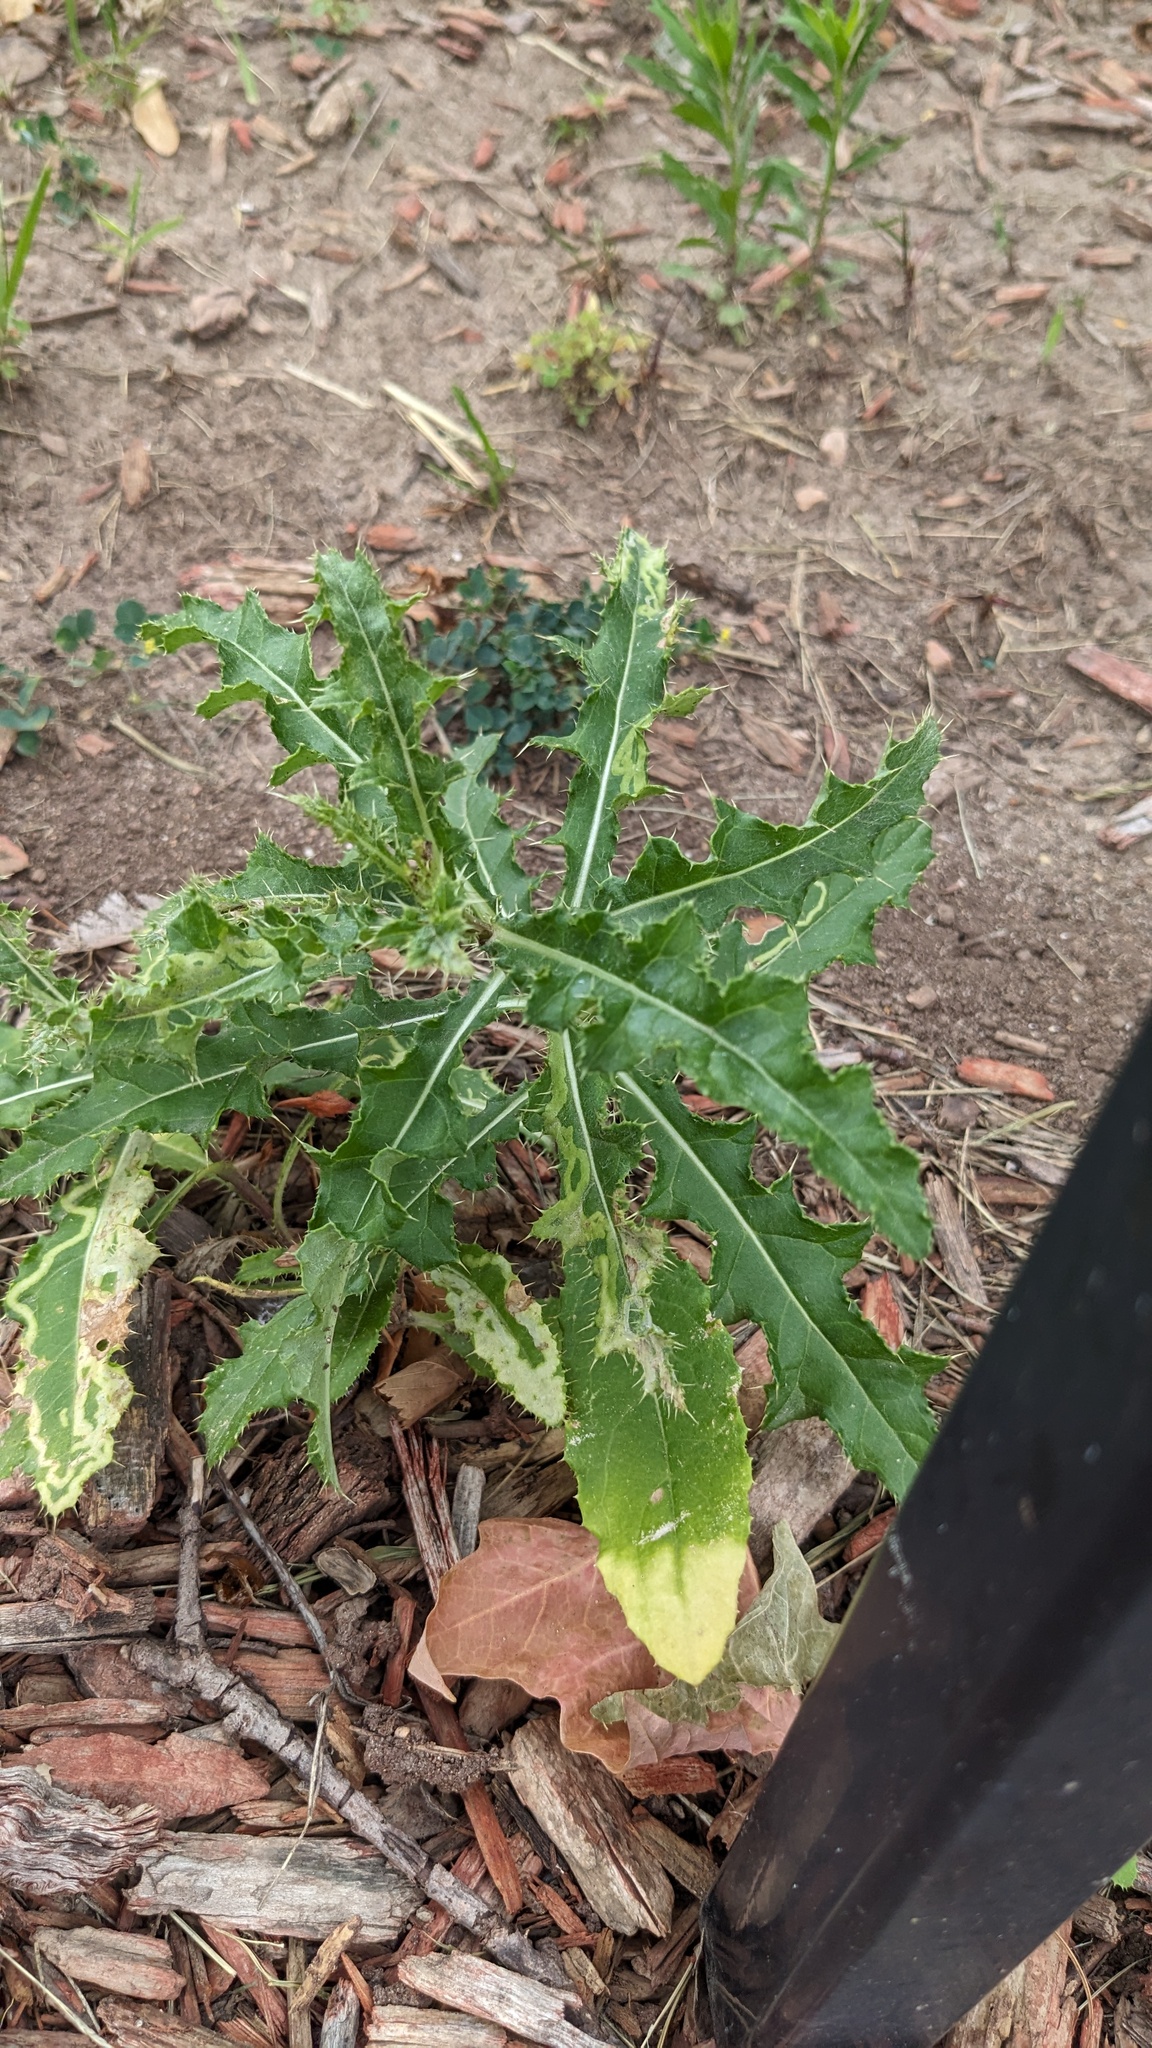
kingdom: Plantae
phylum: Tracheophyta
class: Magnoliopsida
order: Asterales
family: Asteraceae
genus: Cirsium
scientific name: Cirsium arvense
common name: Creeping thistle
